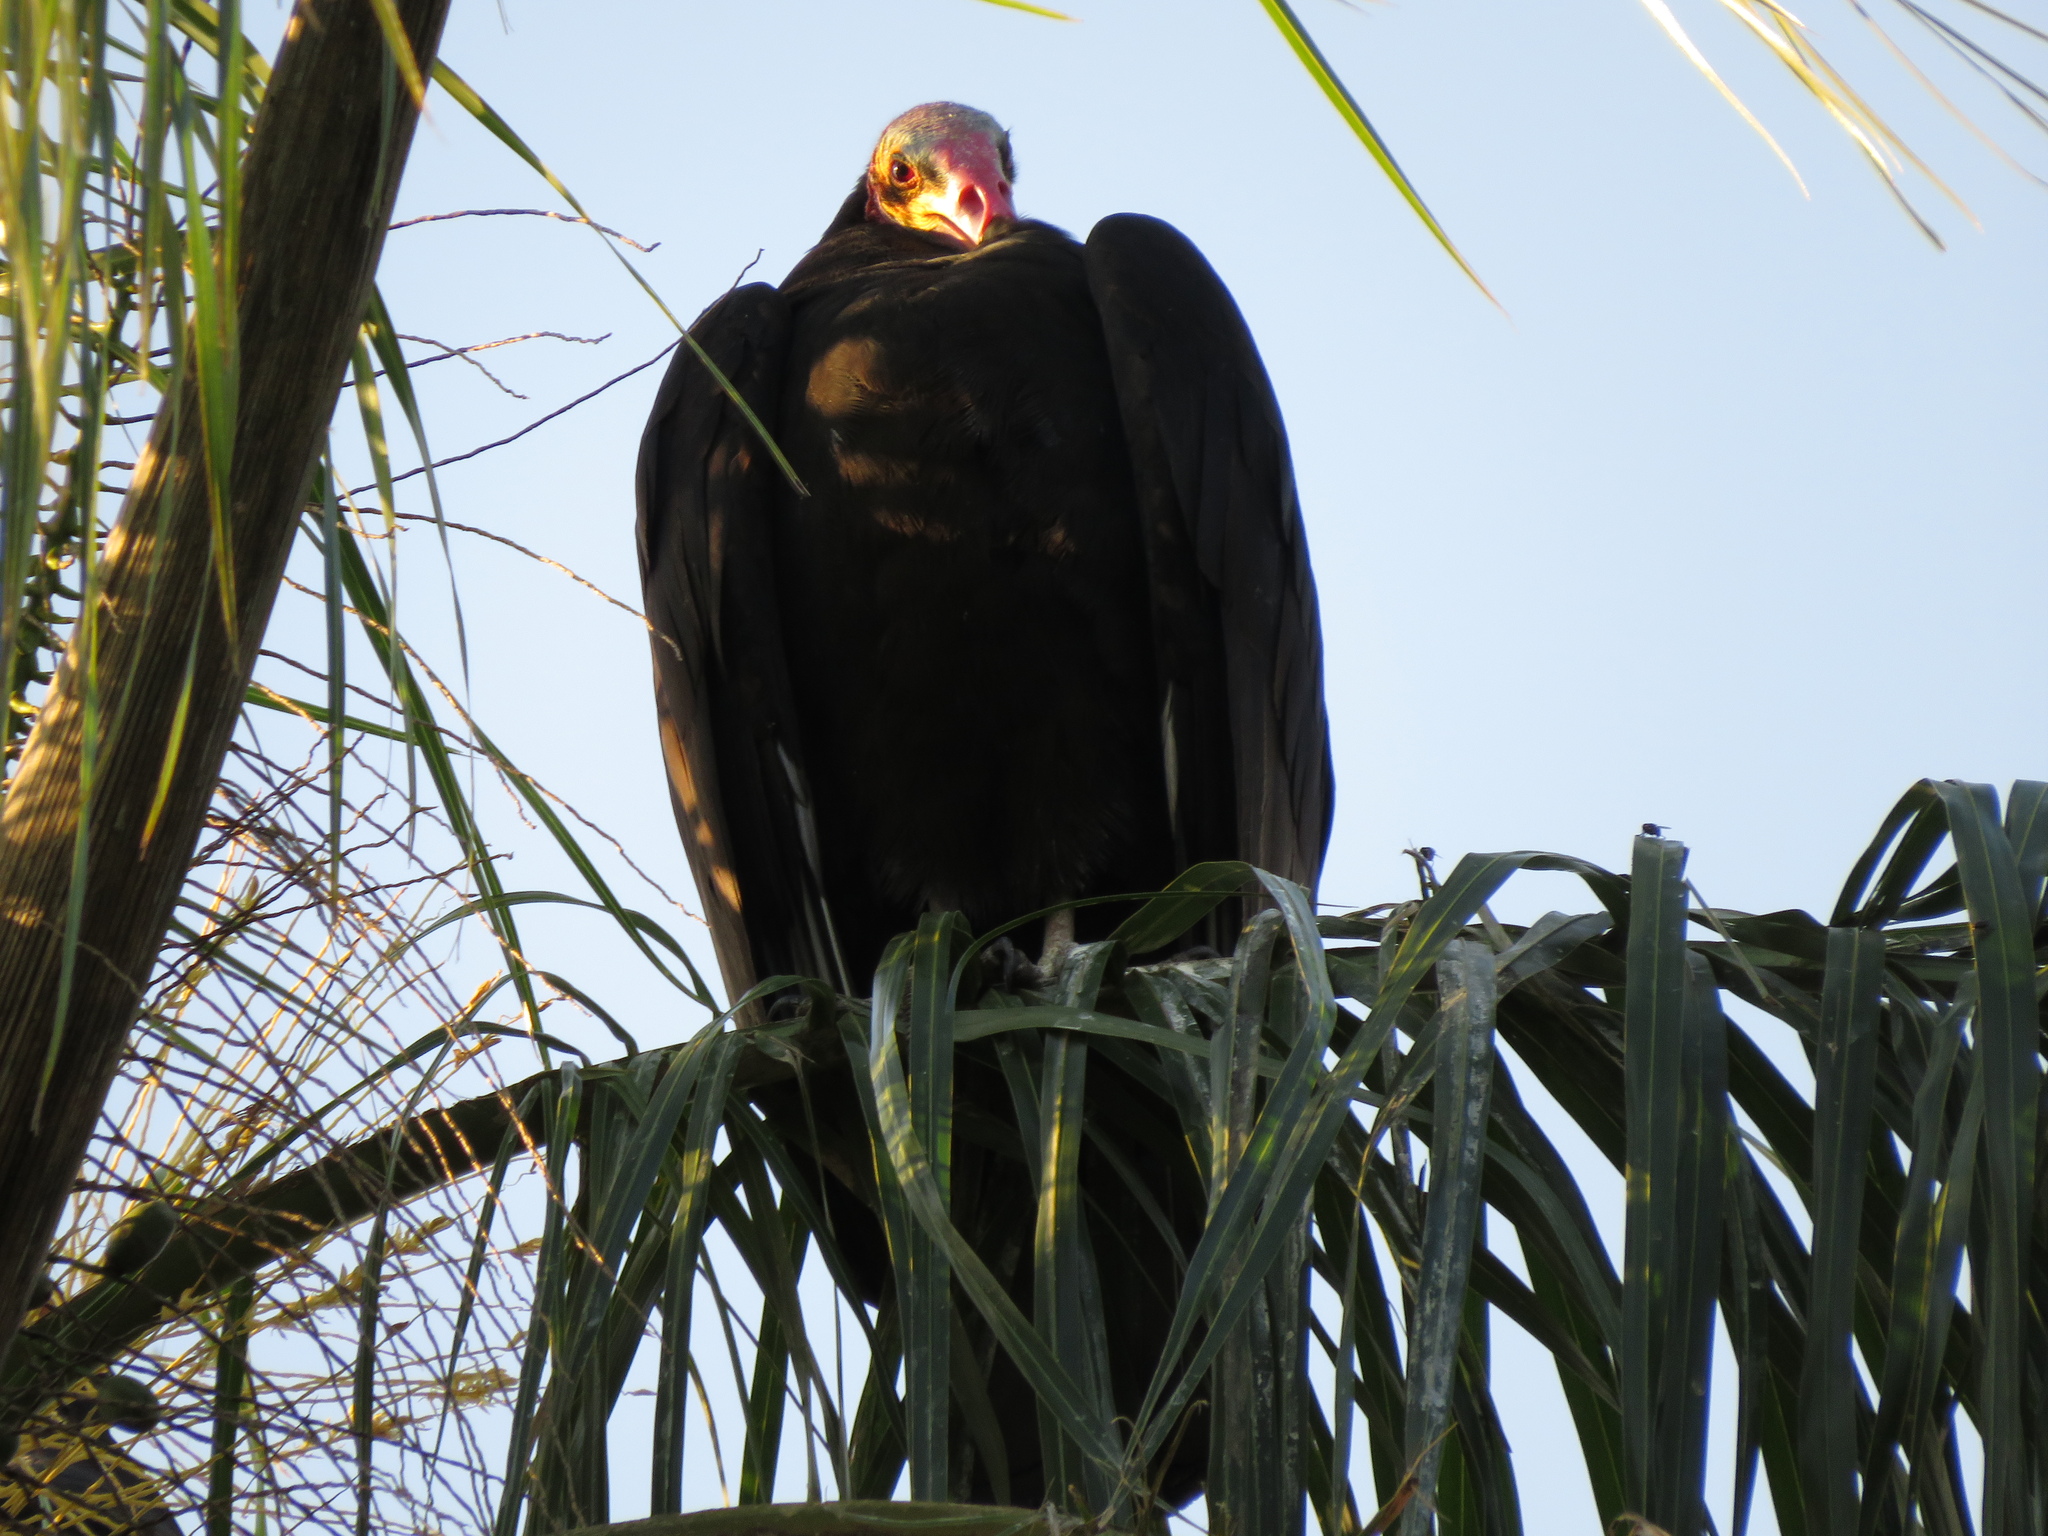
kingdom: Animalia
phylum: Chordata
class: Aves
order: Accipitriformes
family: Cathartidae
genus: Cathartes
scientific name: Cathartes burrovianus
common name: Lesser yellow-headed vulture
